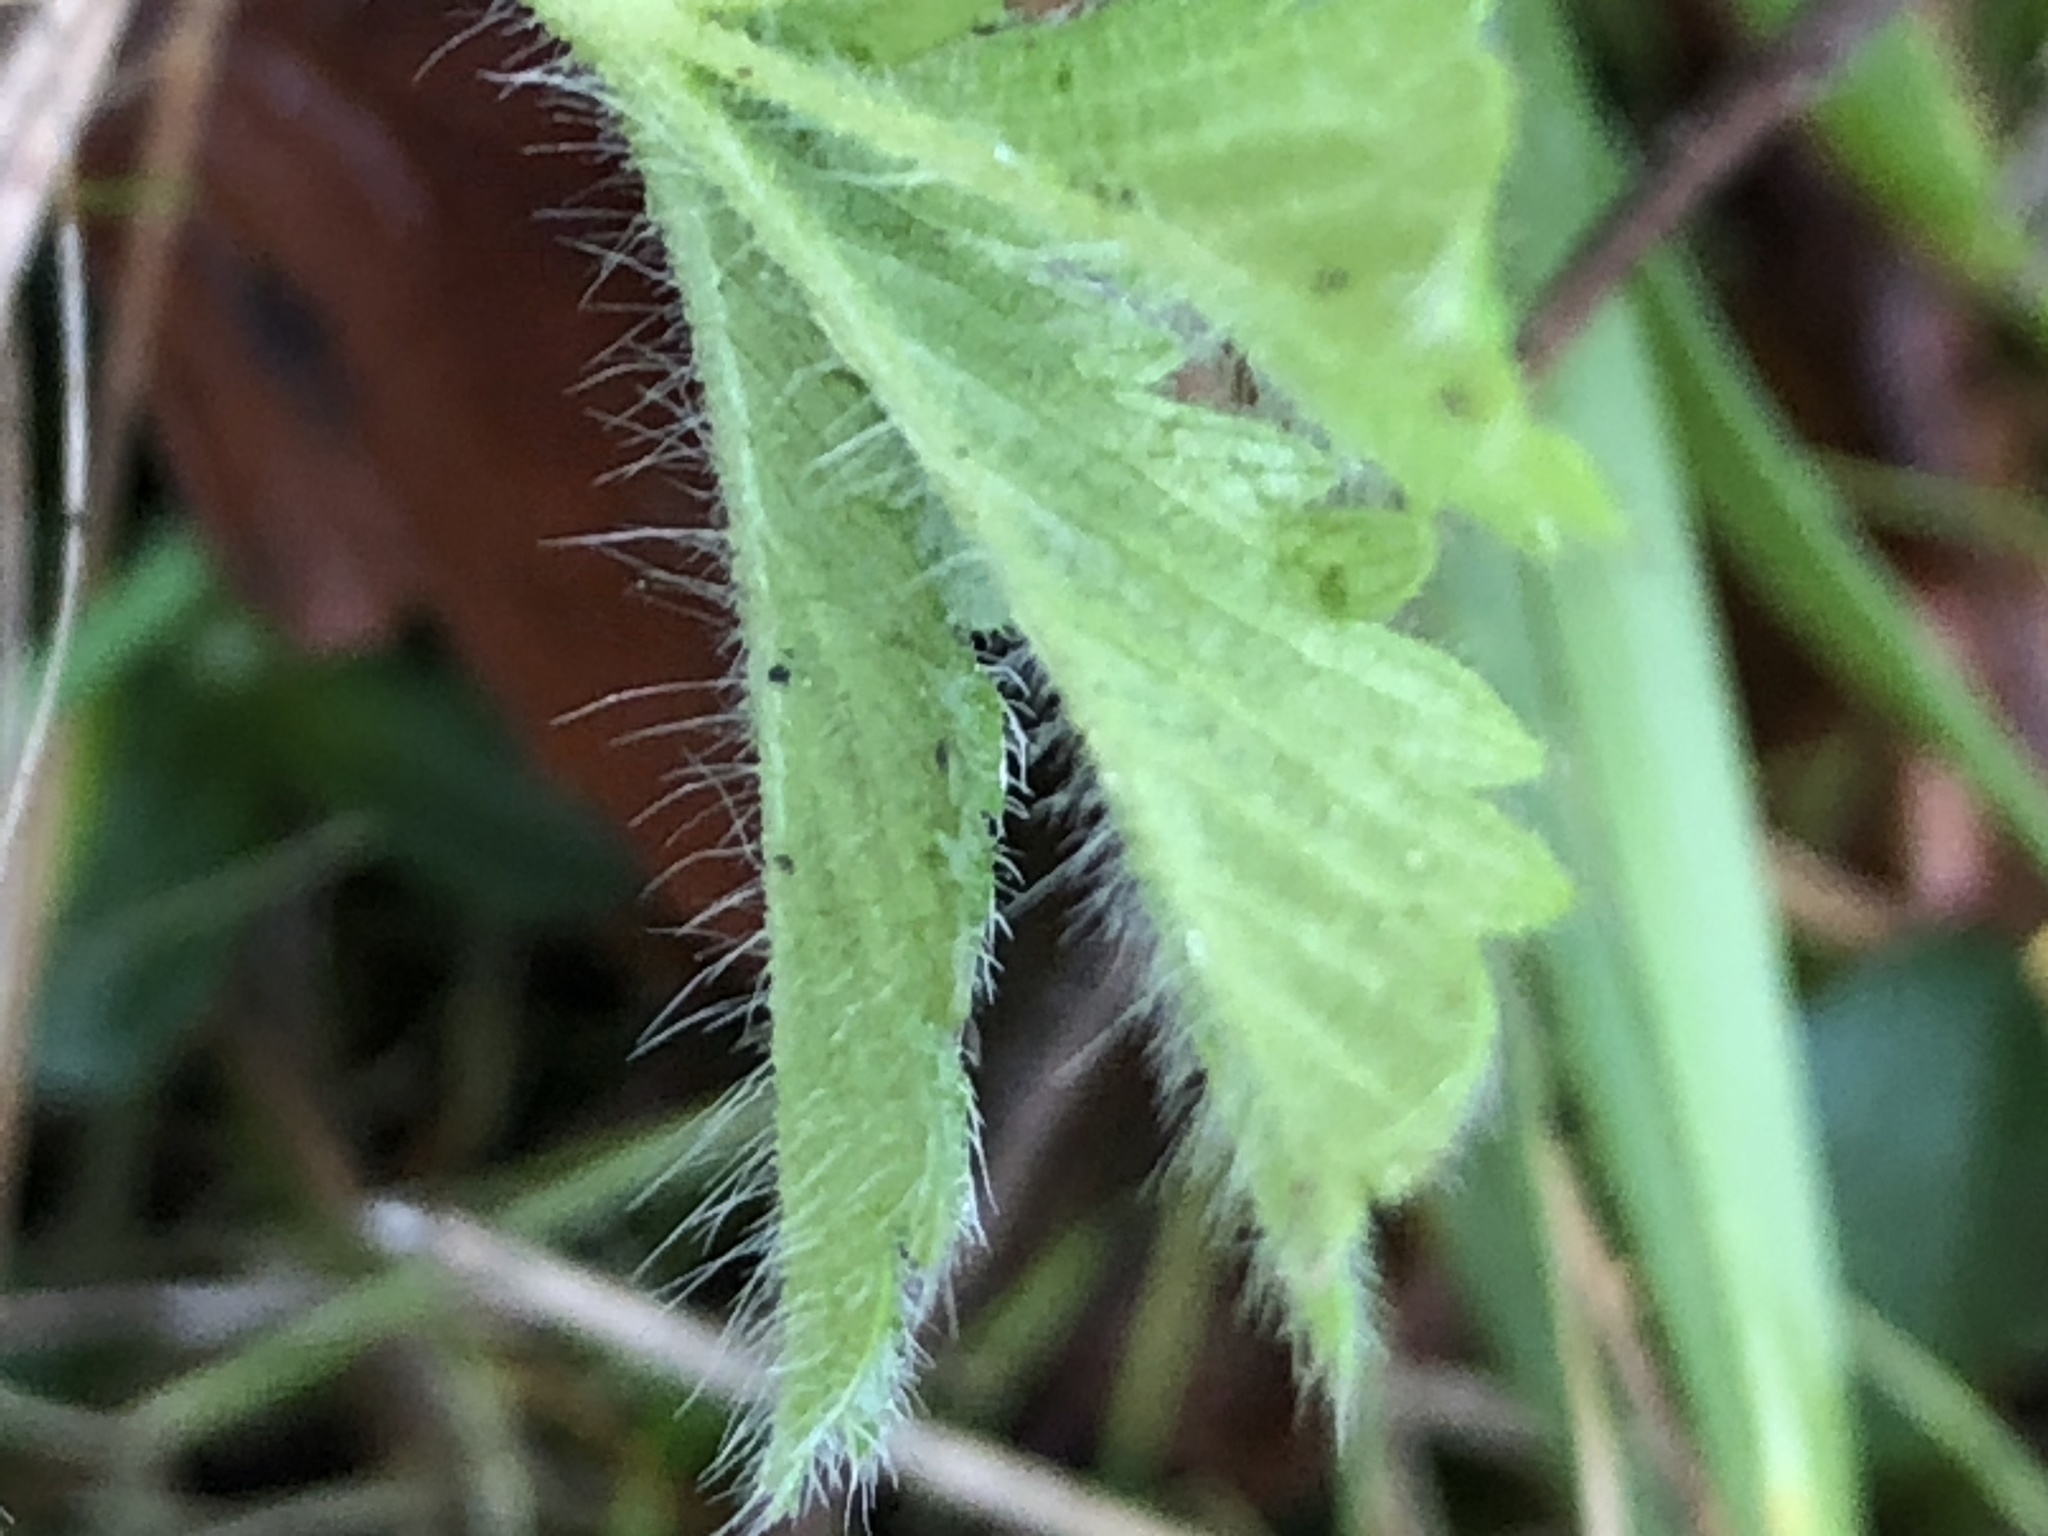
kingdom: Plantae
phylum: Tracheophyta
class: Magnoliopsida
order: Rosales
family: Rosaceae
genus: Potentilla
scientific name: Potentilla recta
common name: Sulphur cinquefoil
